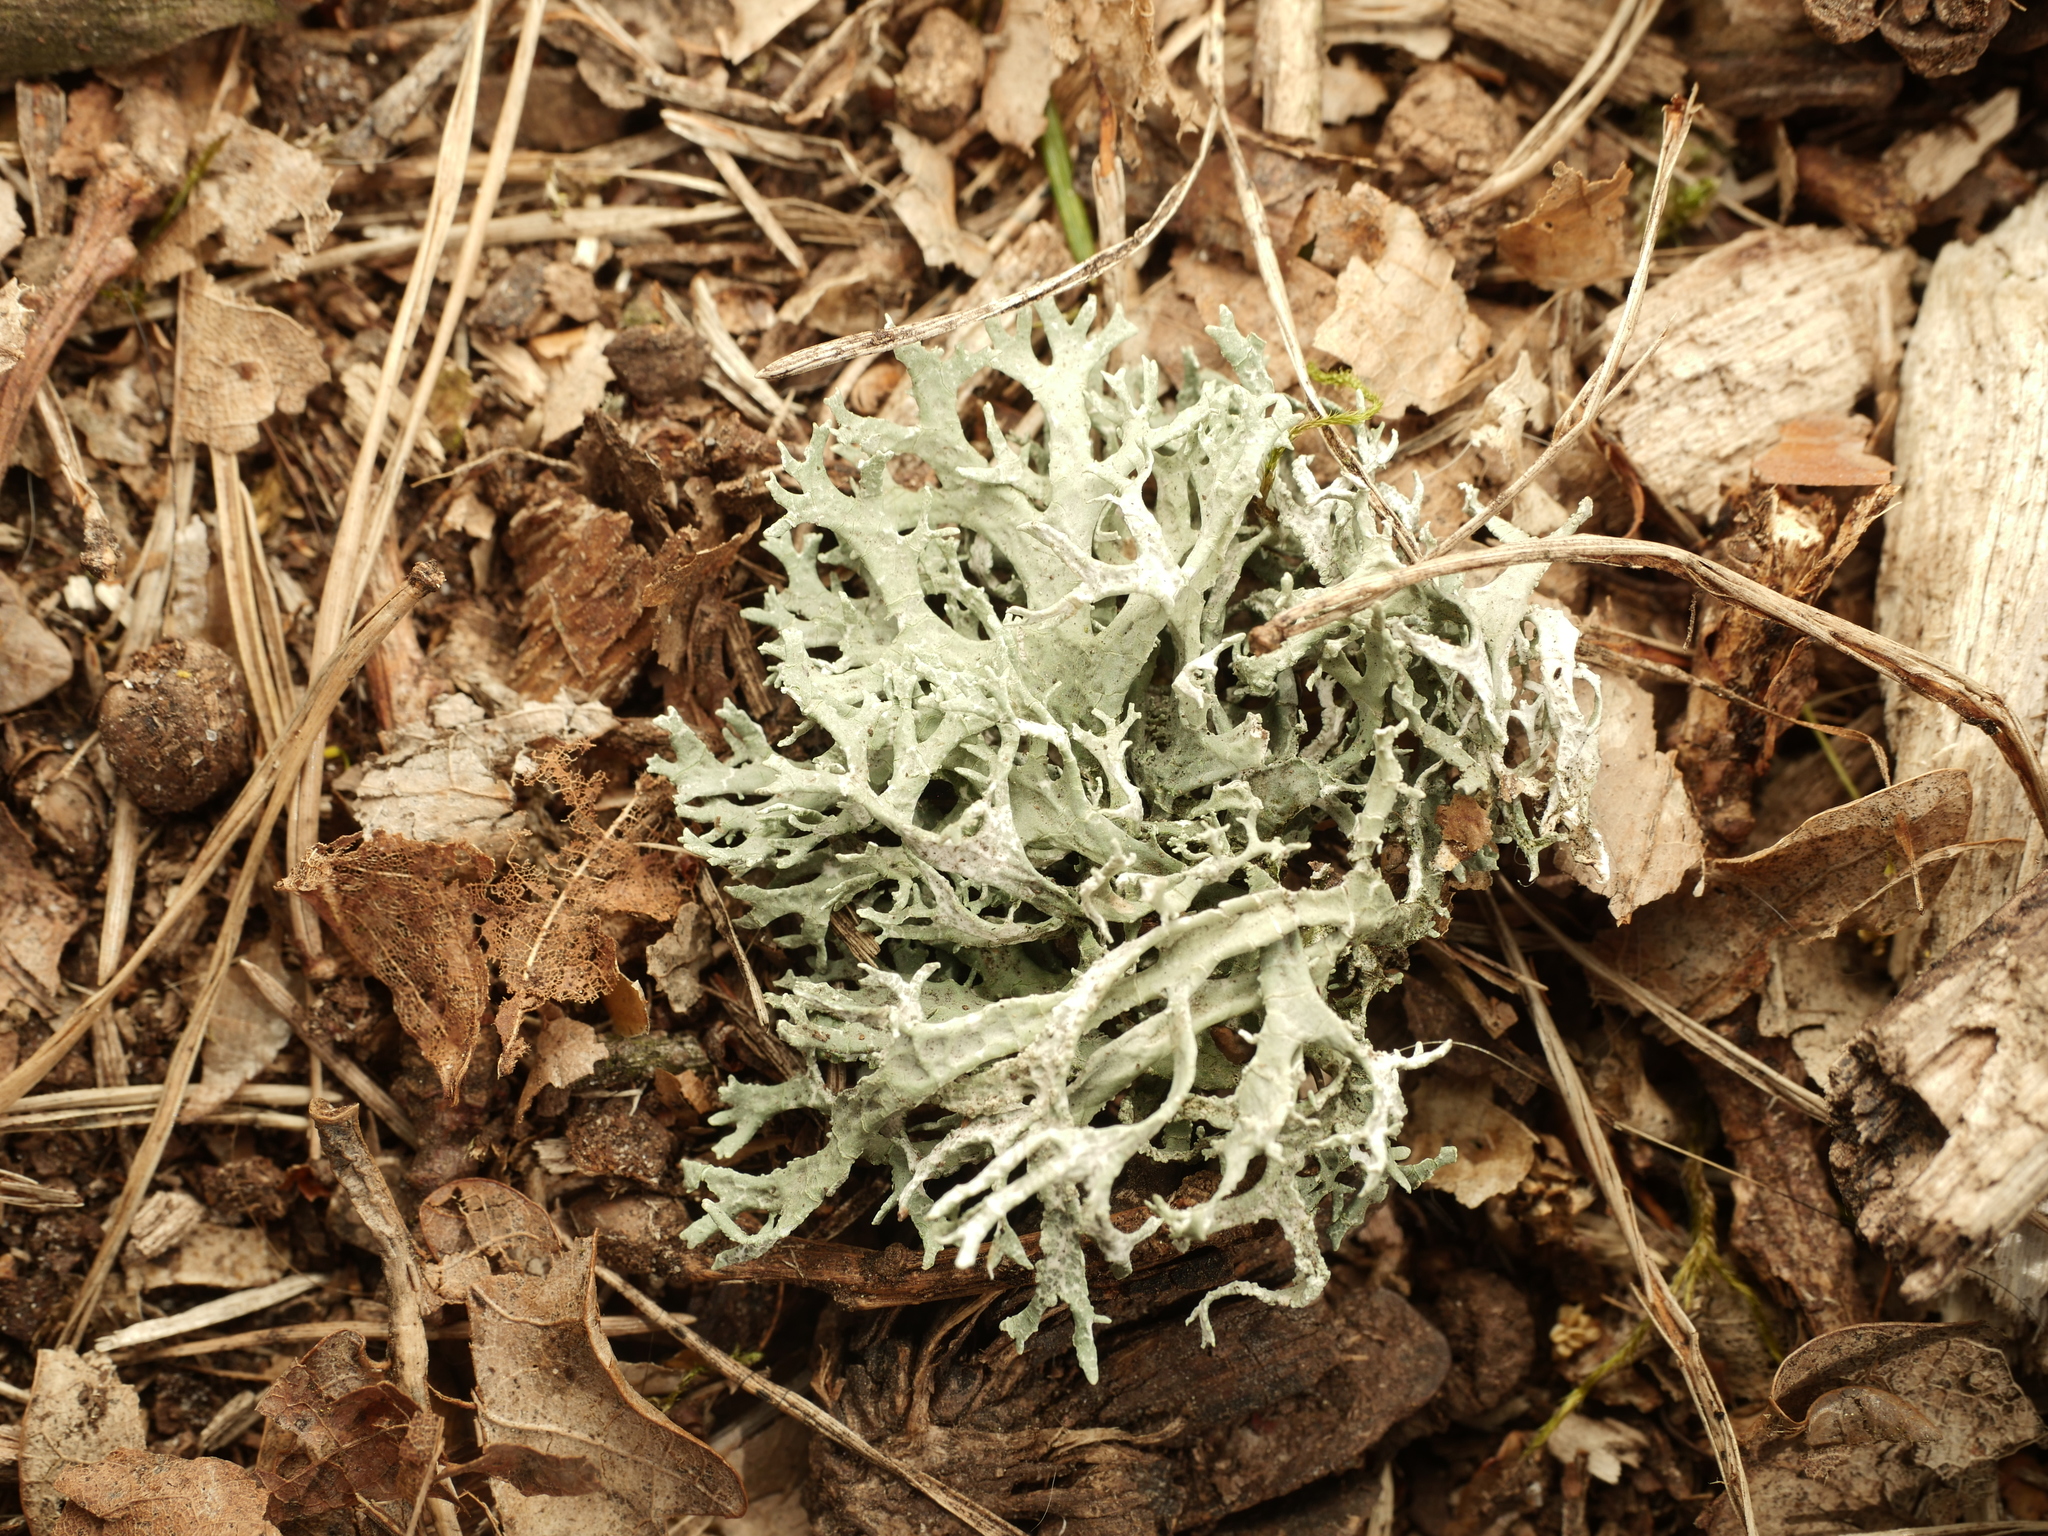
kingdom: Fungi
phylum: Ascomycota
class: Lecanoromycetes
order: Lecanorales
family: Parmeliaceae
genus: Evernia
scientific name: Evernia prunastri
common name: Oak moss
